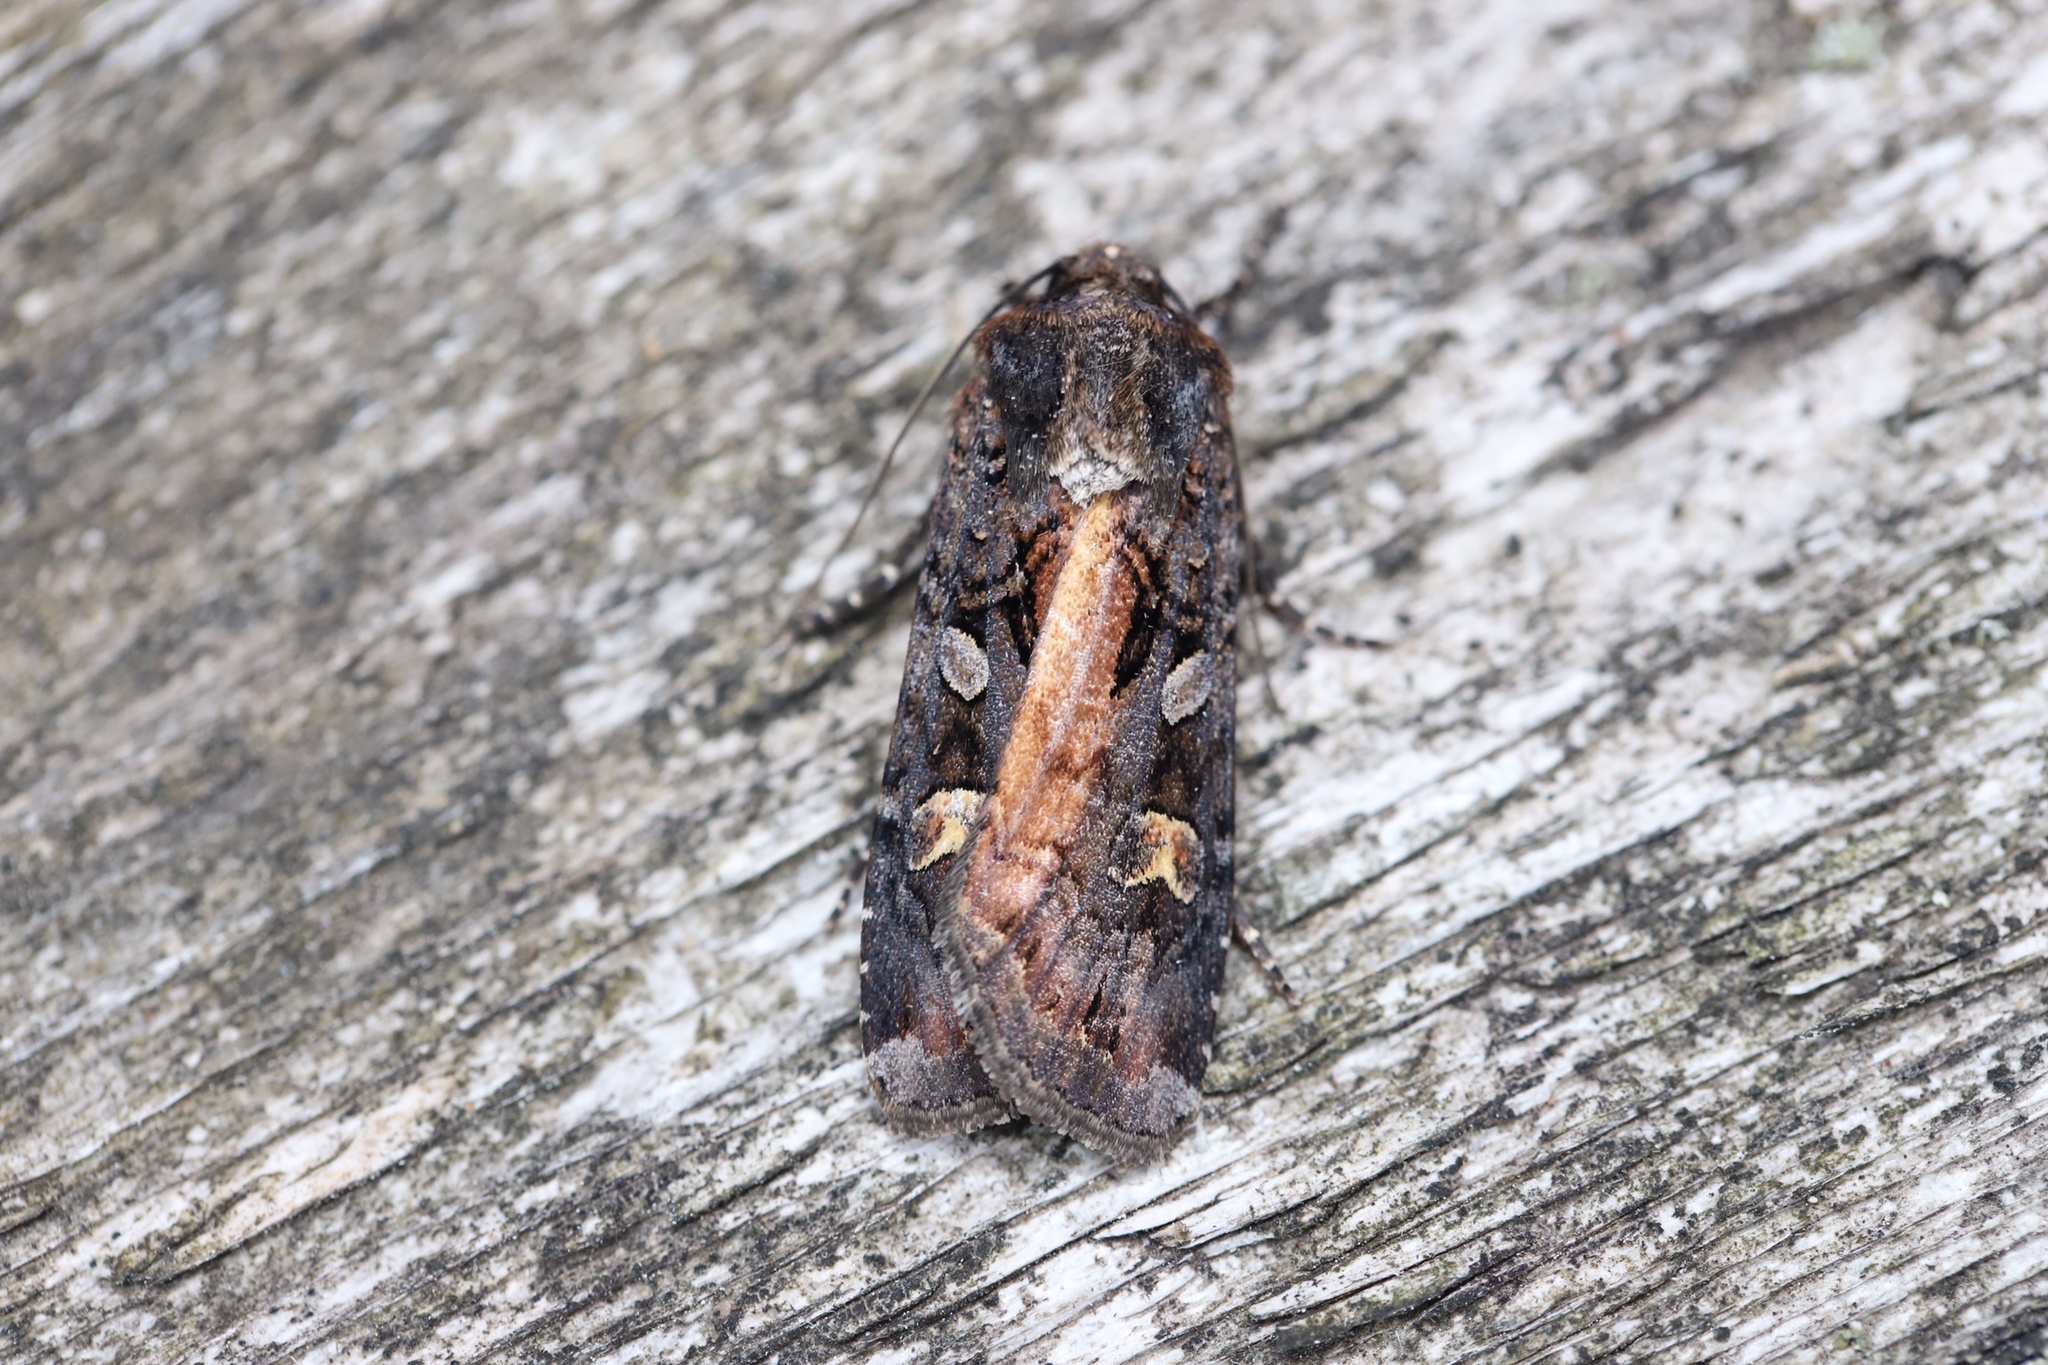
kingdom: Animalia
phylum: Arthropoda
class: Insecta
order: Lepidoptera
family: Noctuidae
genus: Actebia
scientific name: Actebia fennica
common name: Eversmann's rustic
